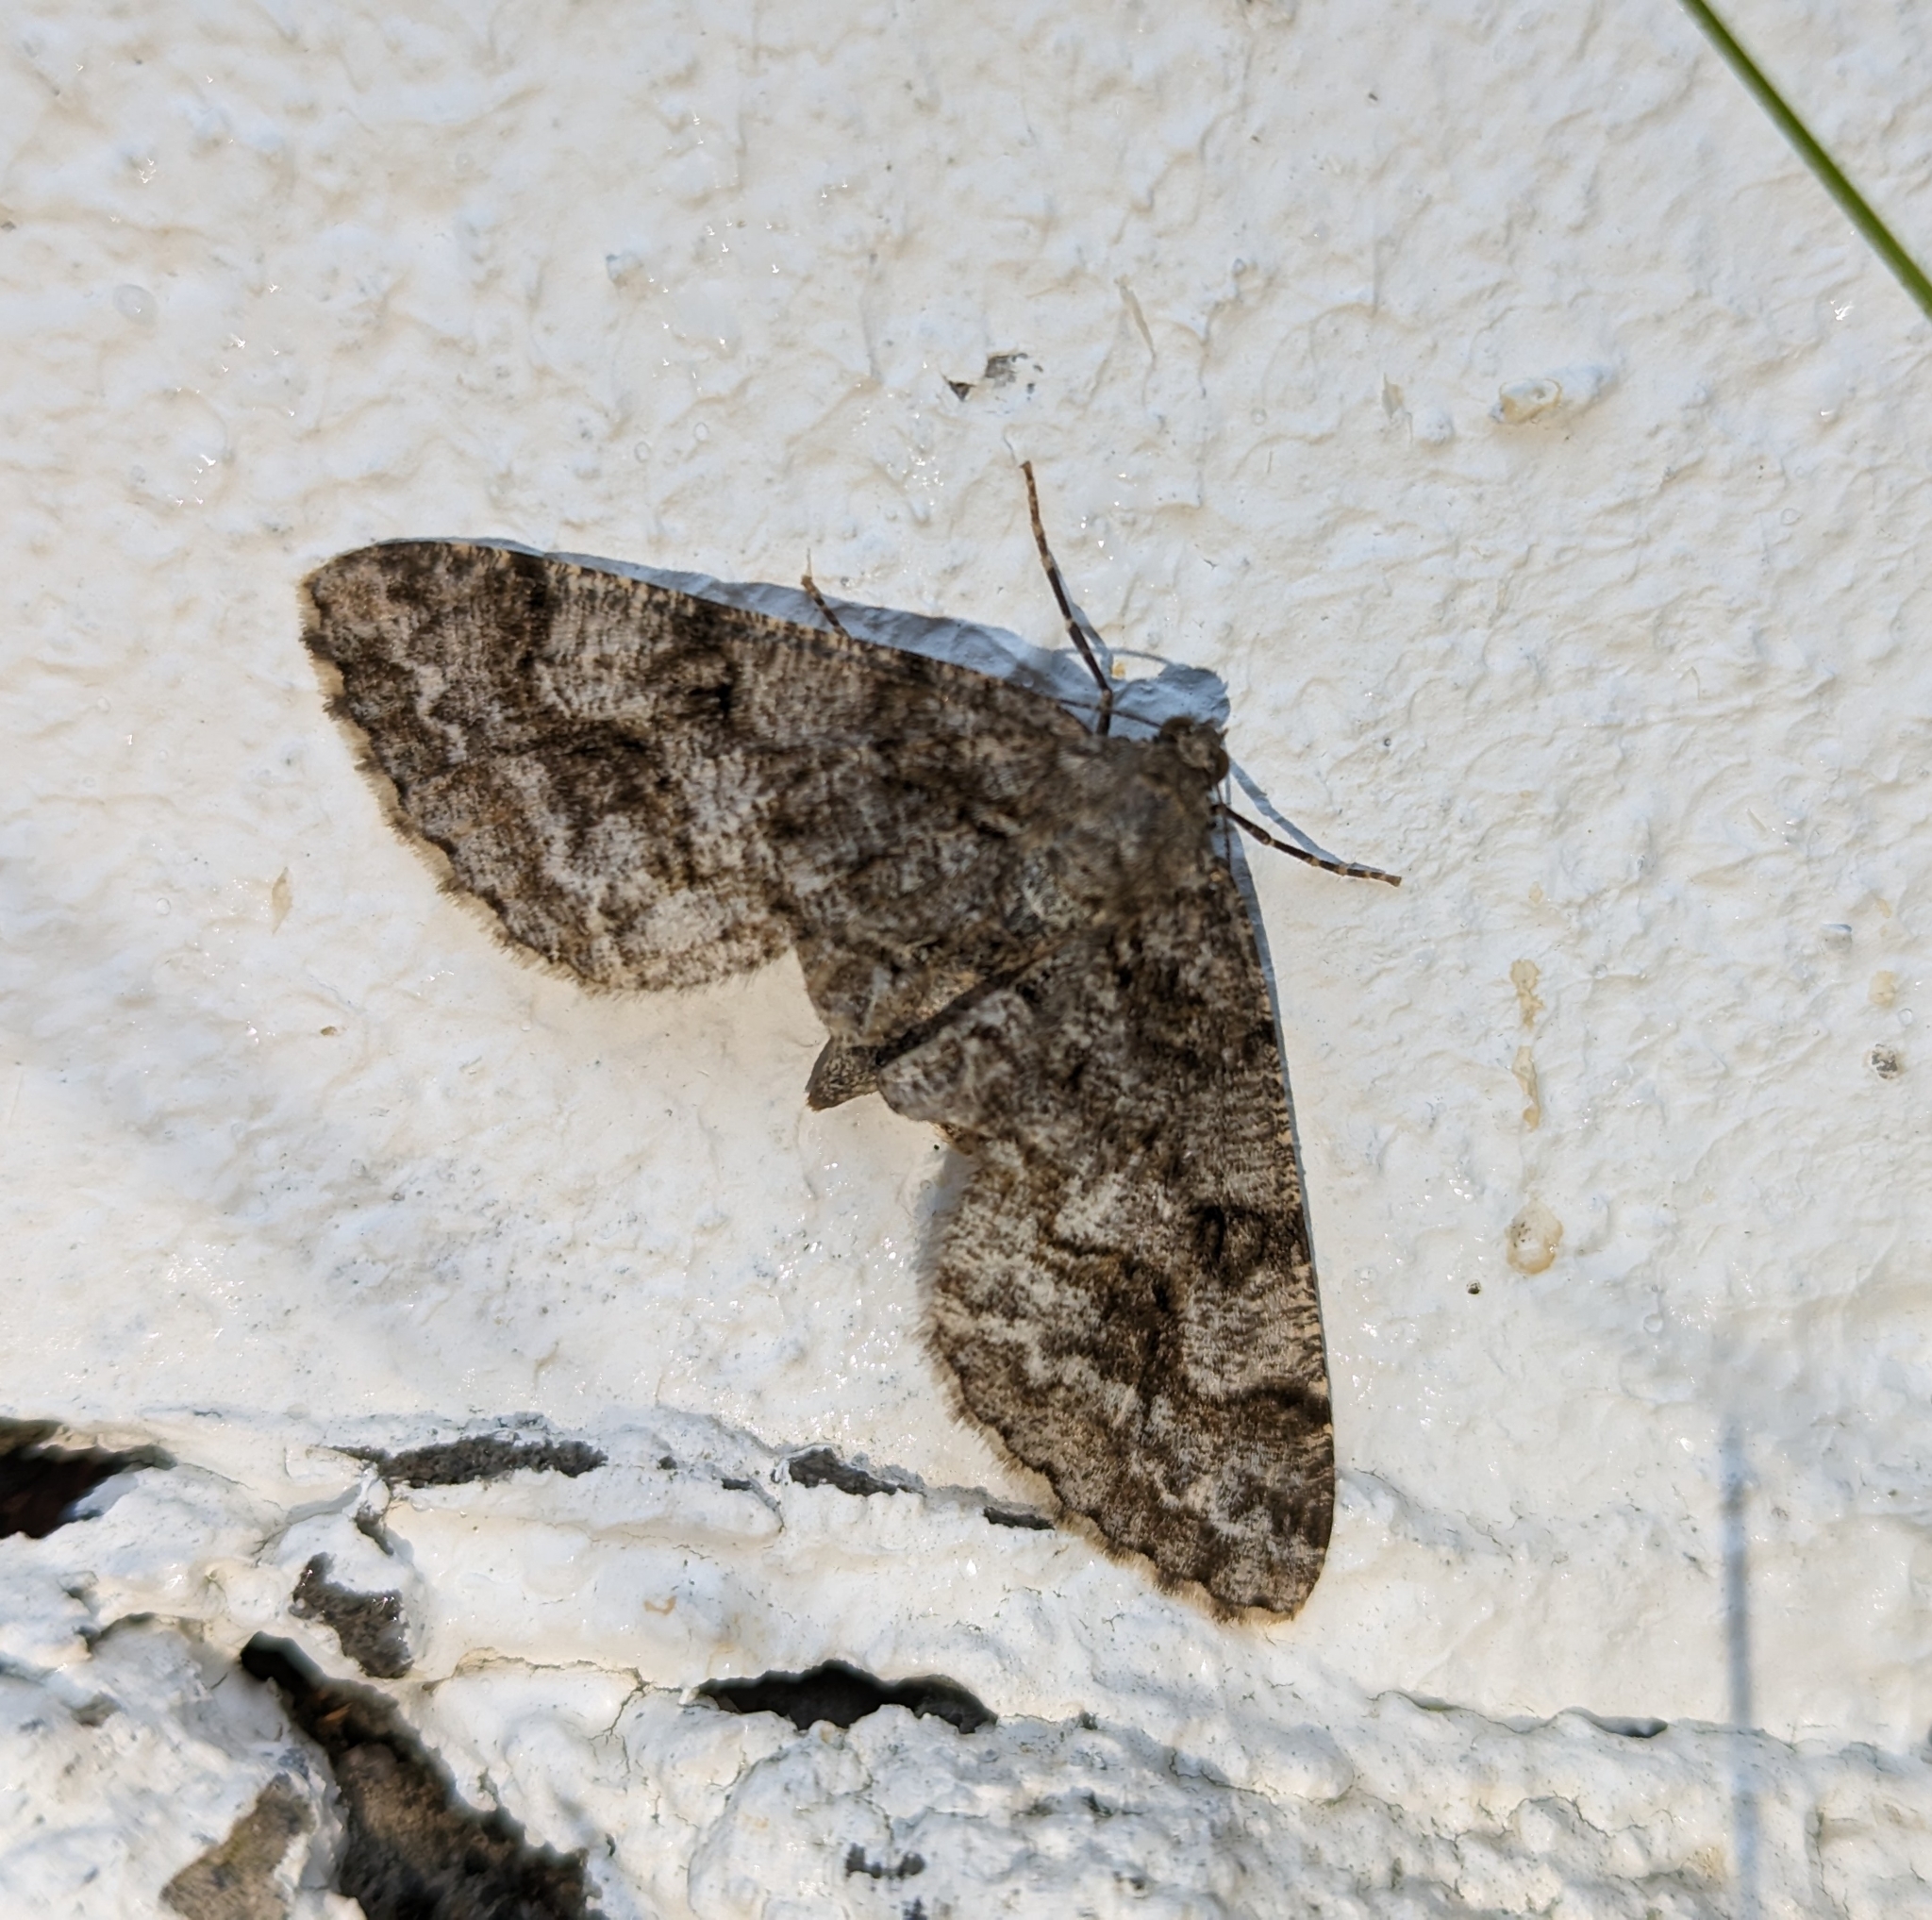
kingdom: Animalia
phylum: Arthropoda
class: Insecta
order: Lepidoptera
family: Geometridae
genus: Alcis
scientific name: Alcis repandata
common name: Mottled beauty
